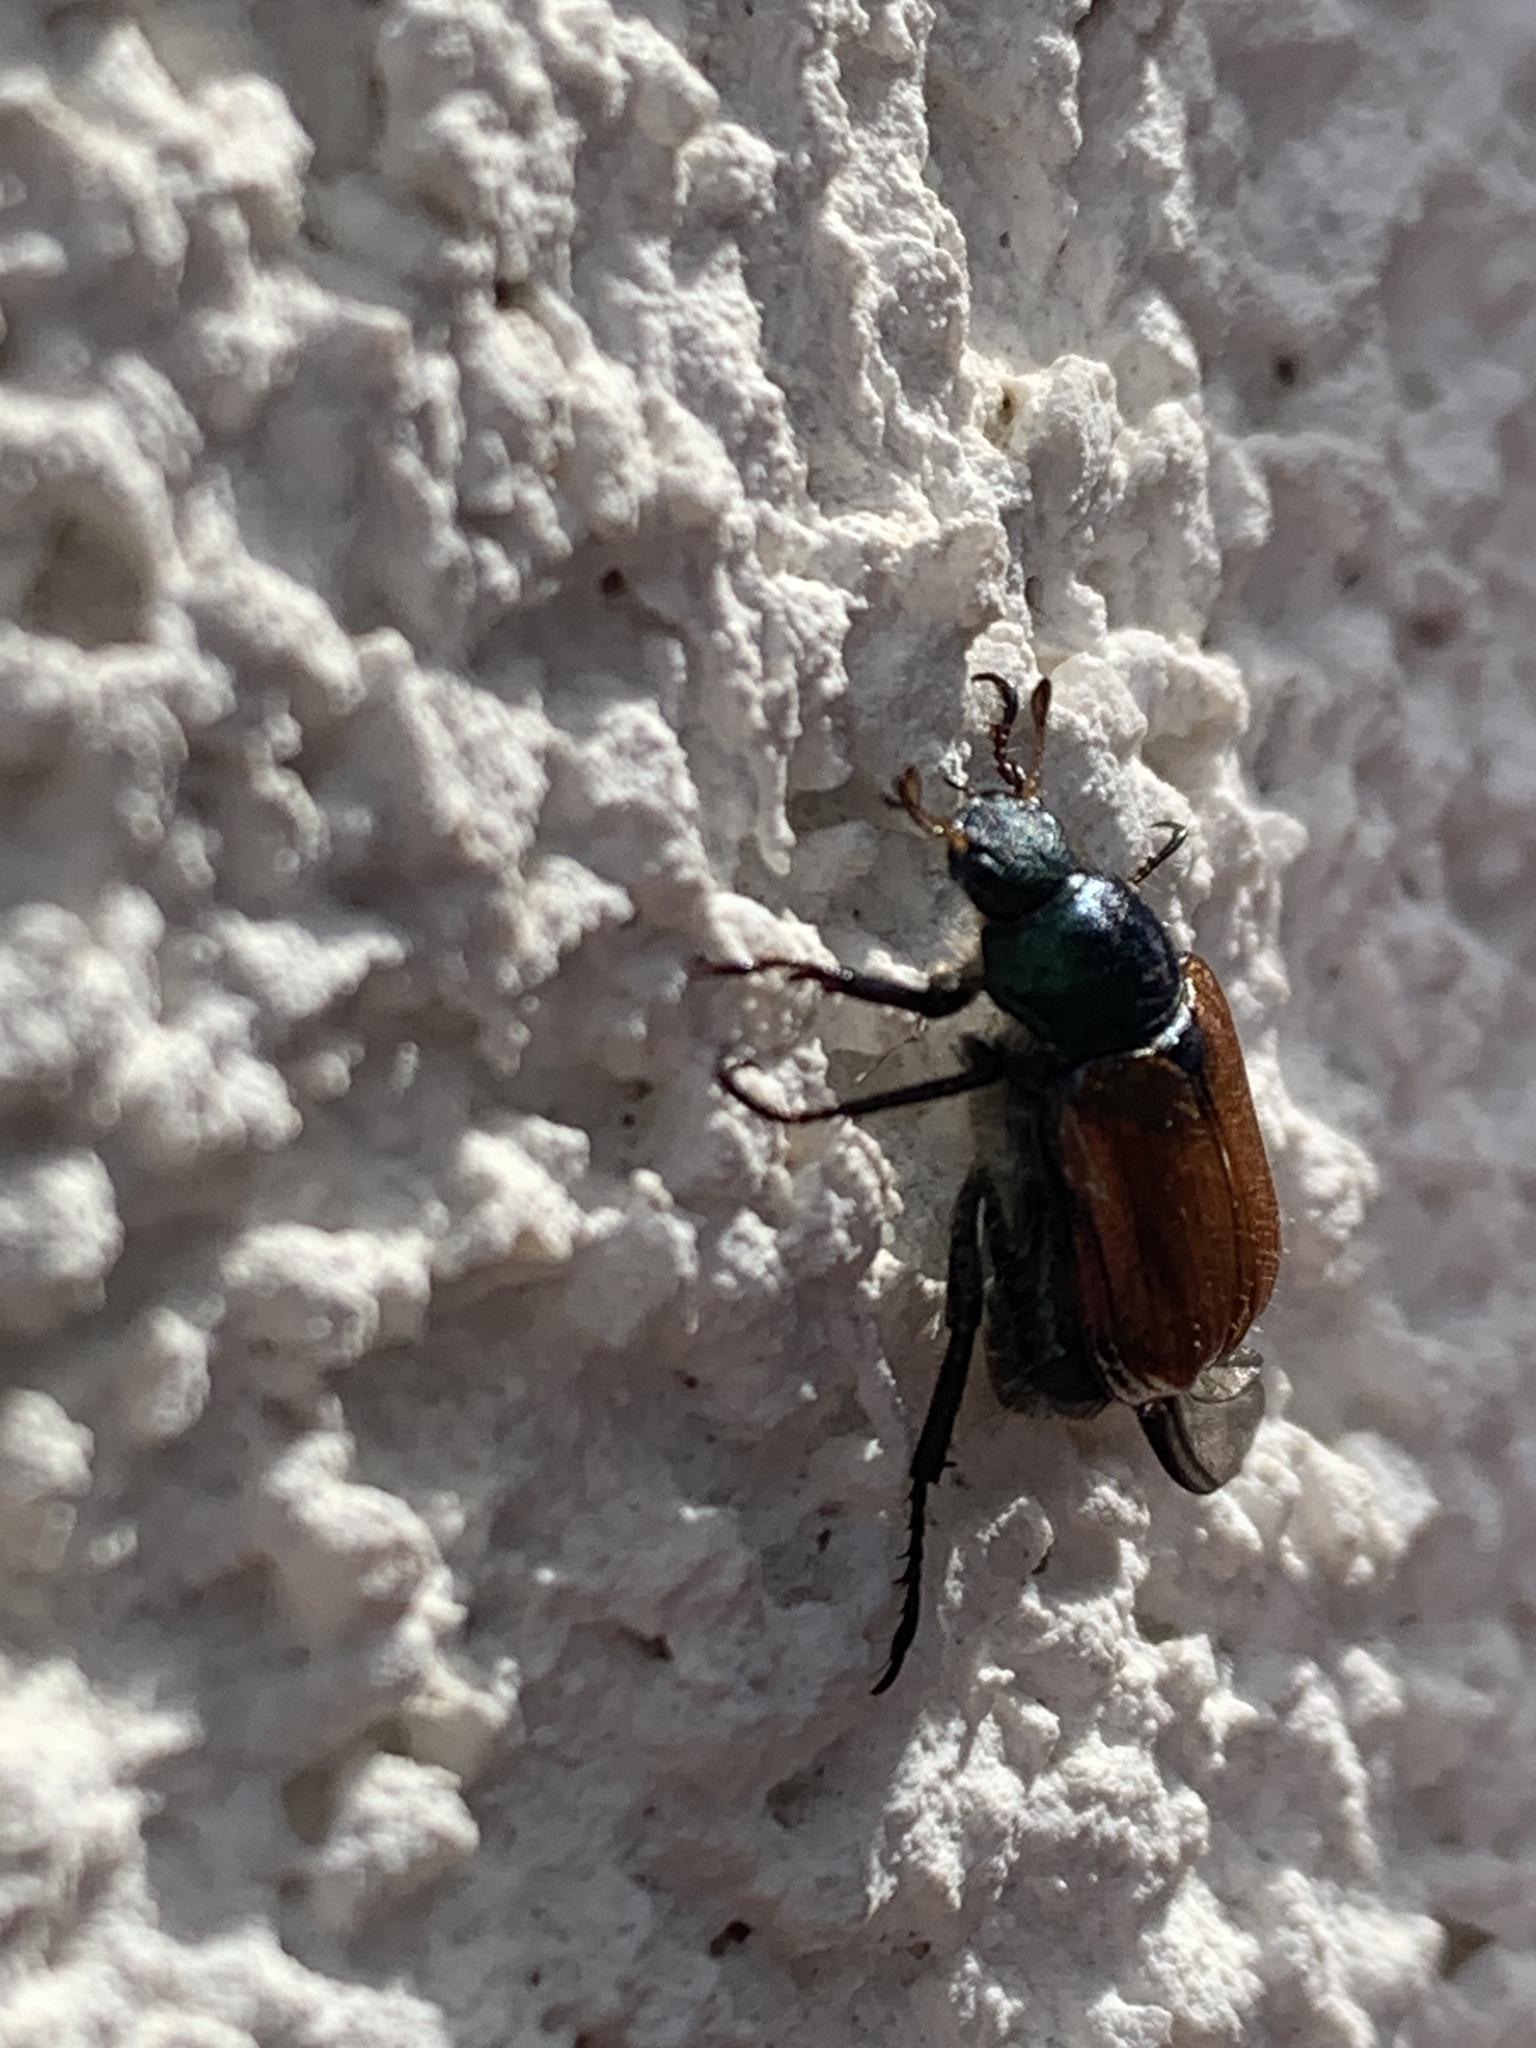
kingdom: Animalia
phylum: Arthropoda
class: Insecta
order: Coleoptera
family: Scarabaeidae
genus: Phyllopertha
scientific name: Phyllopertha horticola
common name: Garden chafer
